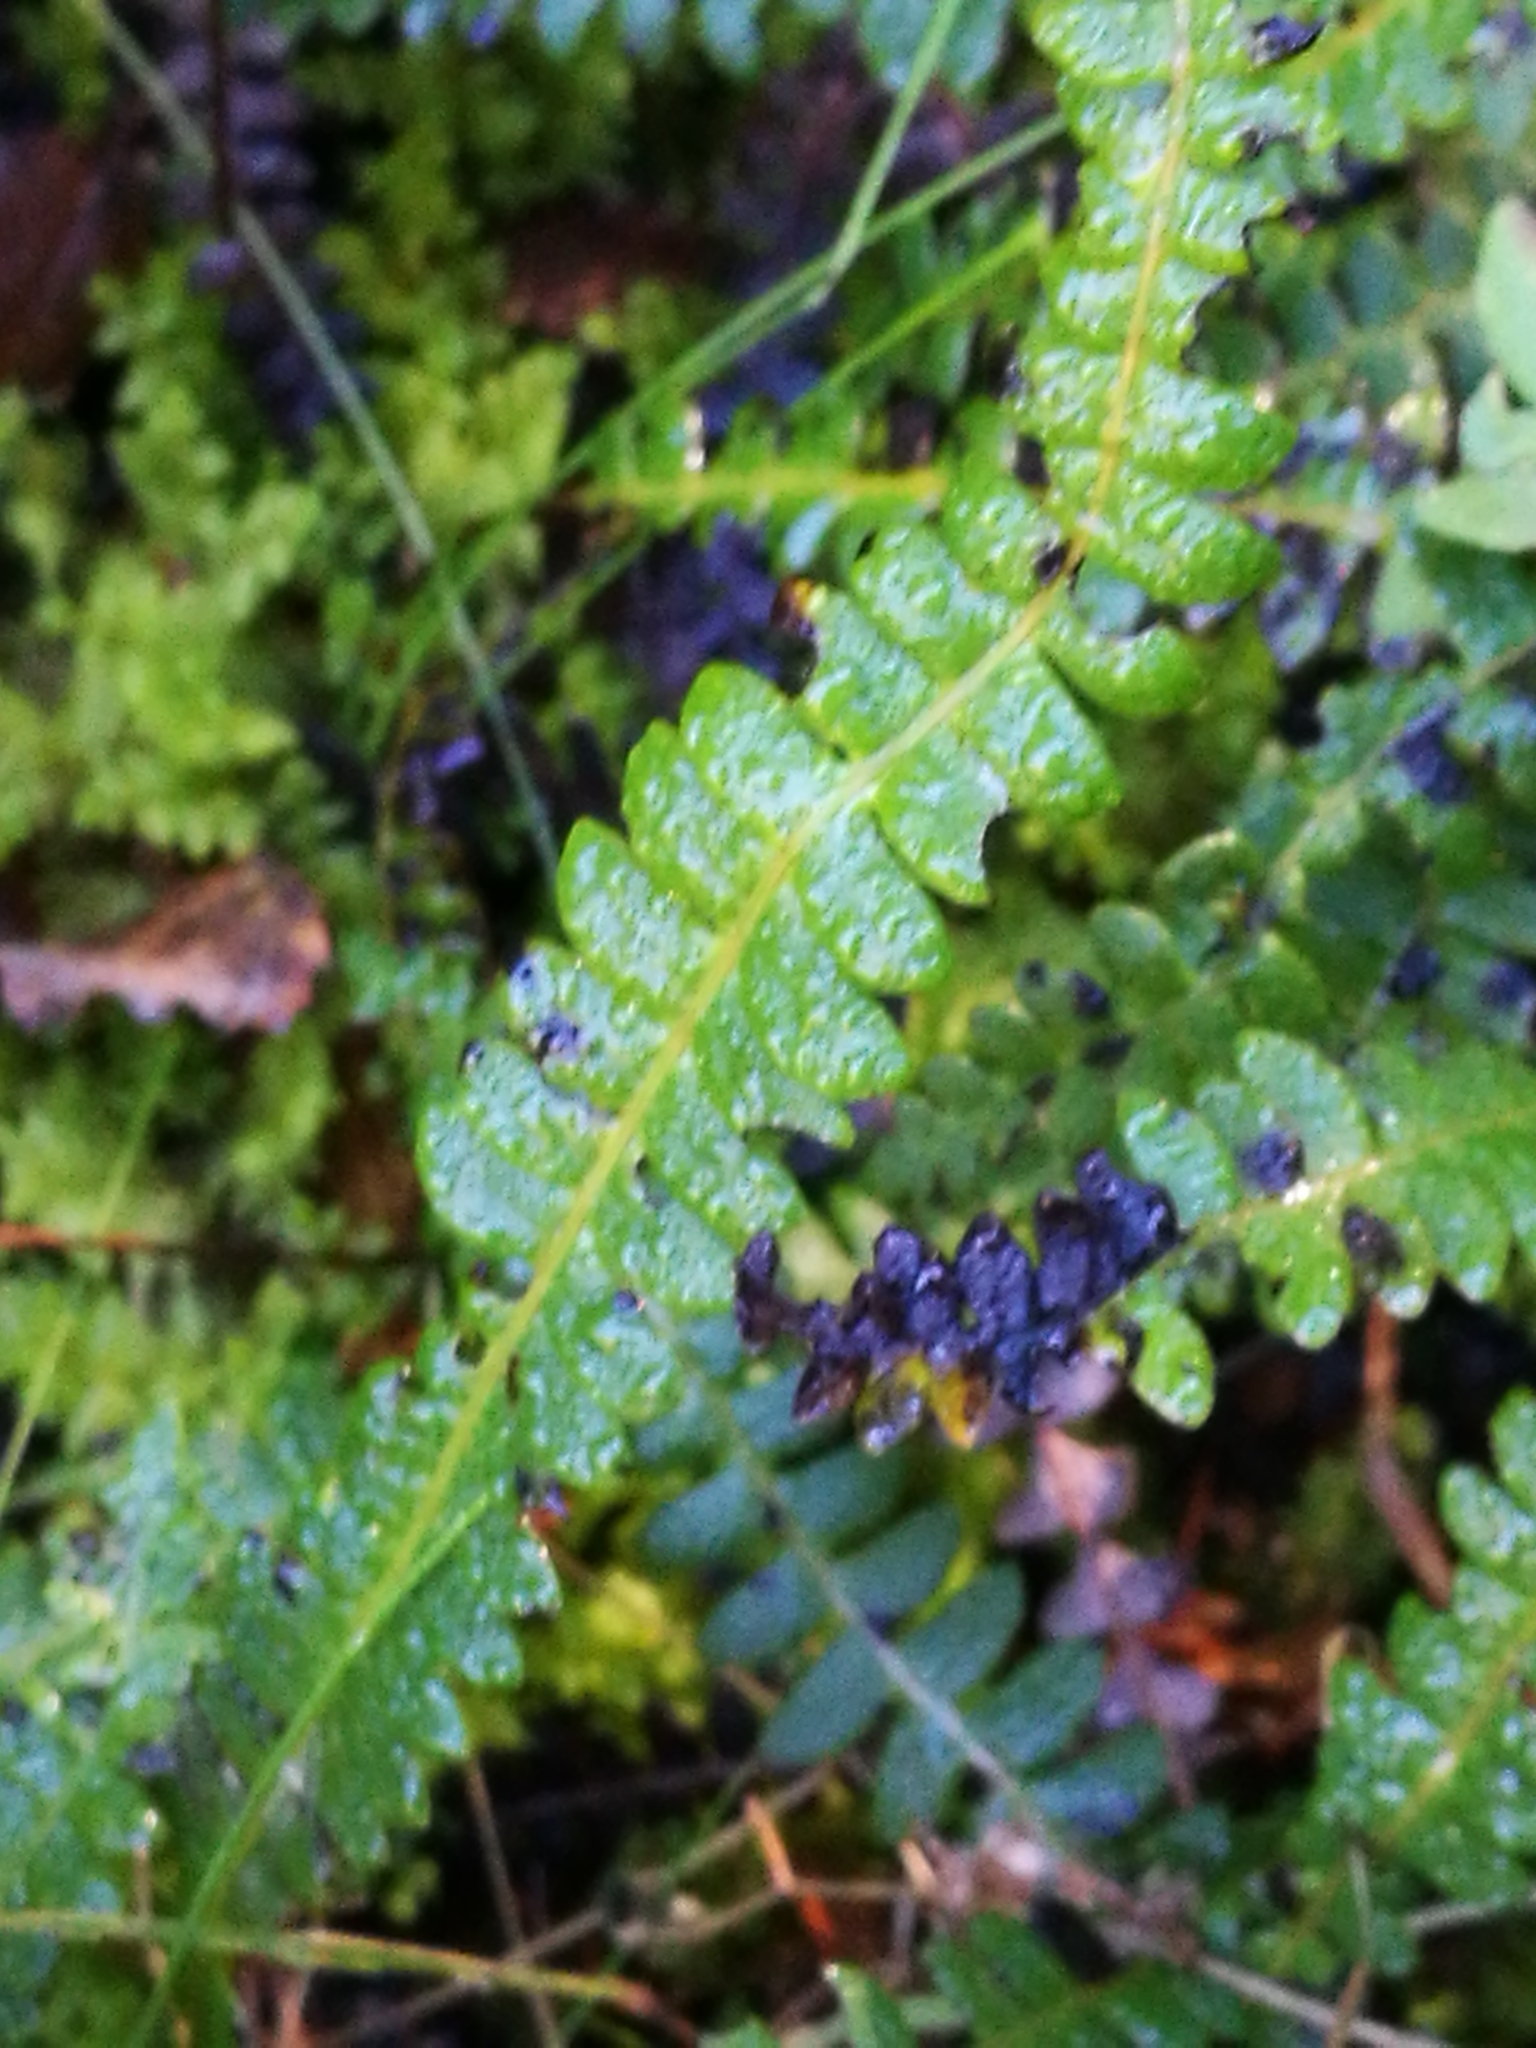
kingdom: Plantae
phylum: Tracheophyta
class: Polypodiopsida
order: Polypodiales
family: Blechnaceae
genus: Austroblechnum
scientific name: Austroblechnum penna-marina
